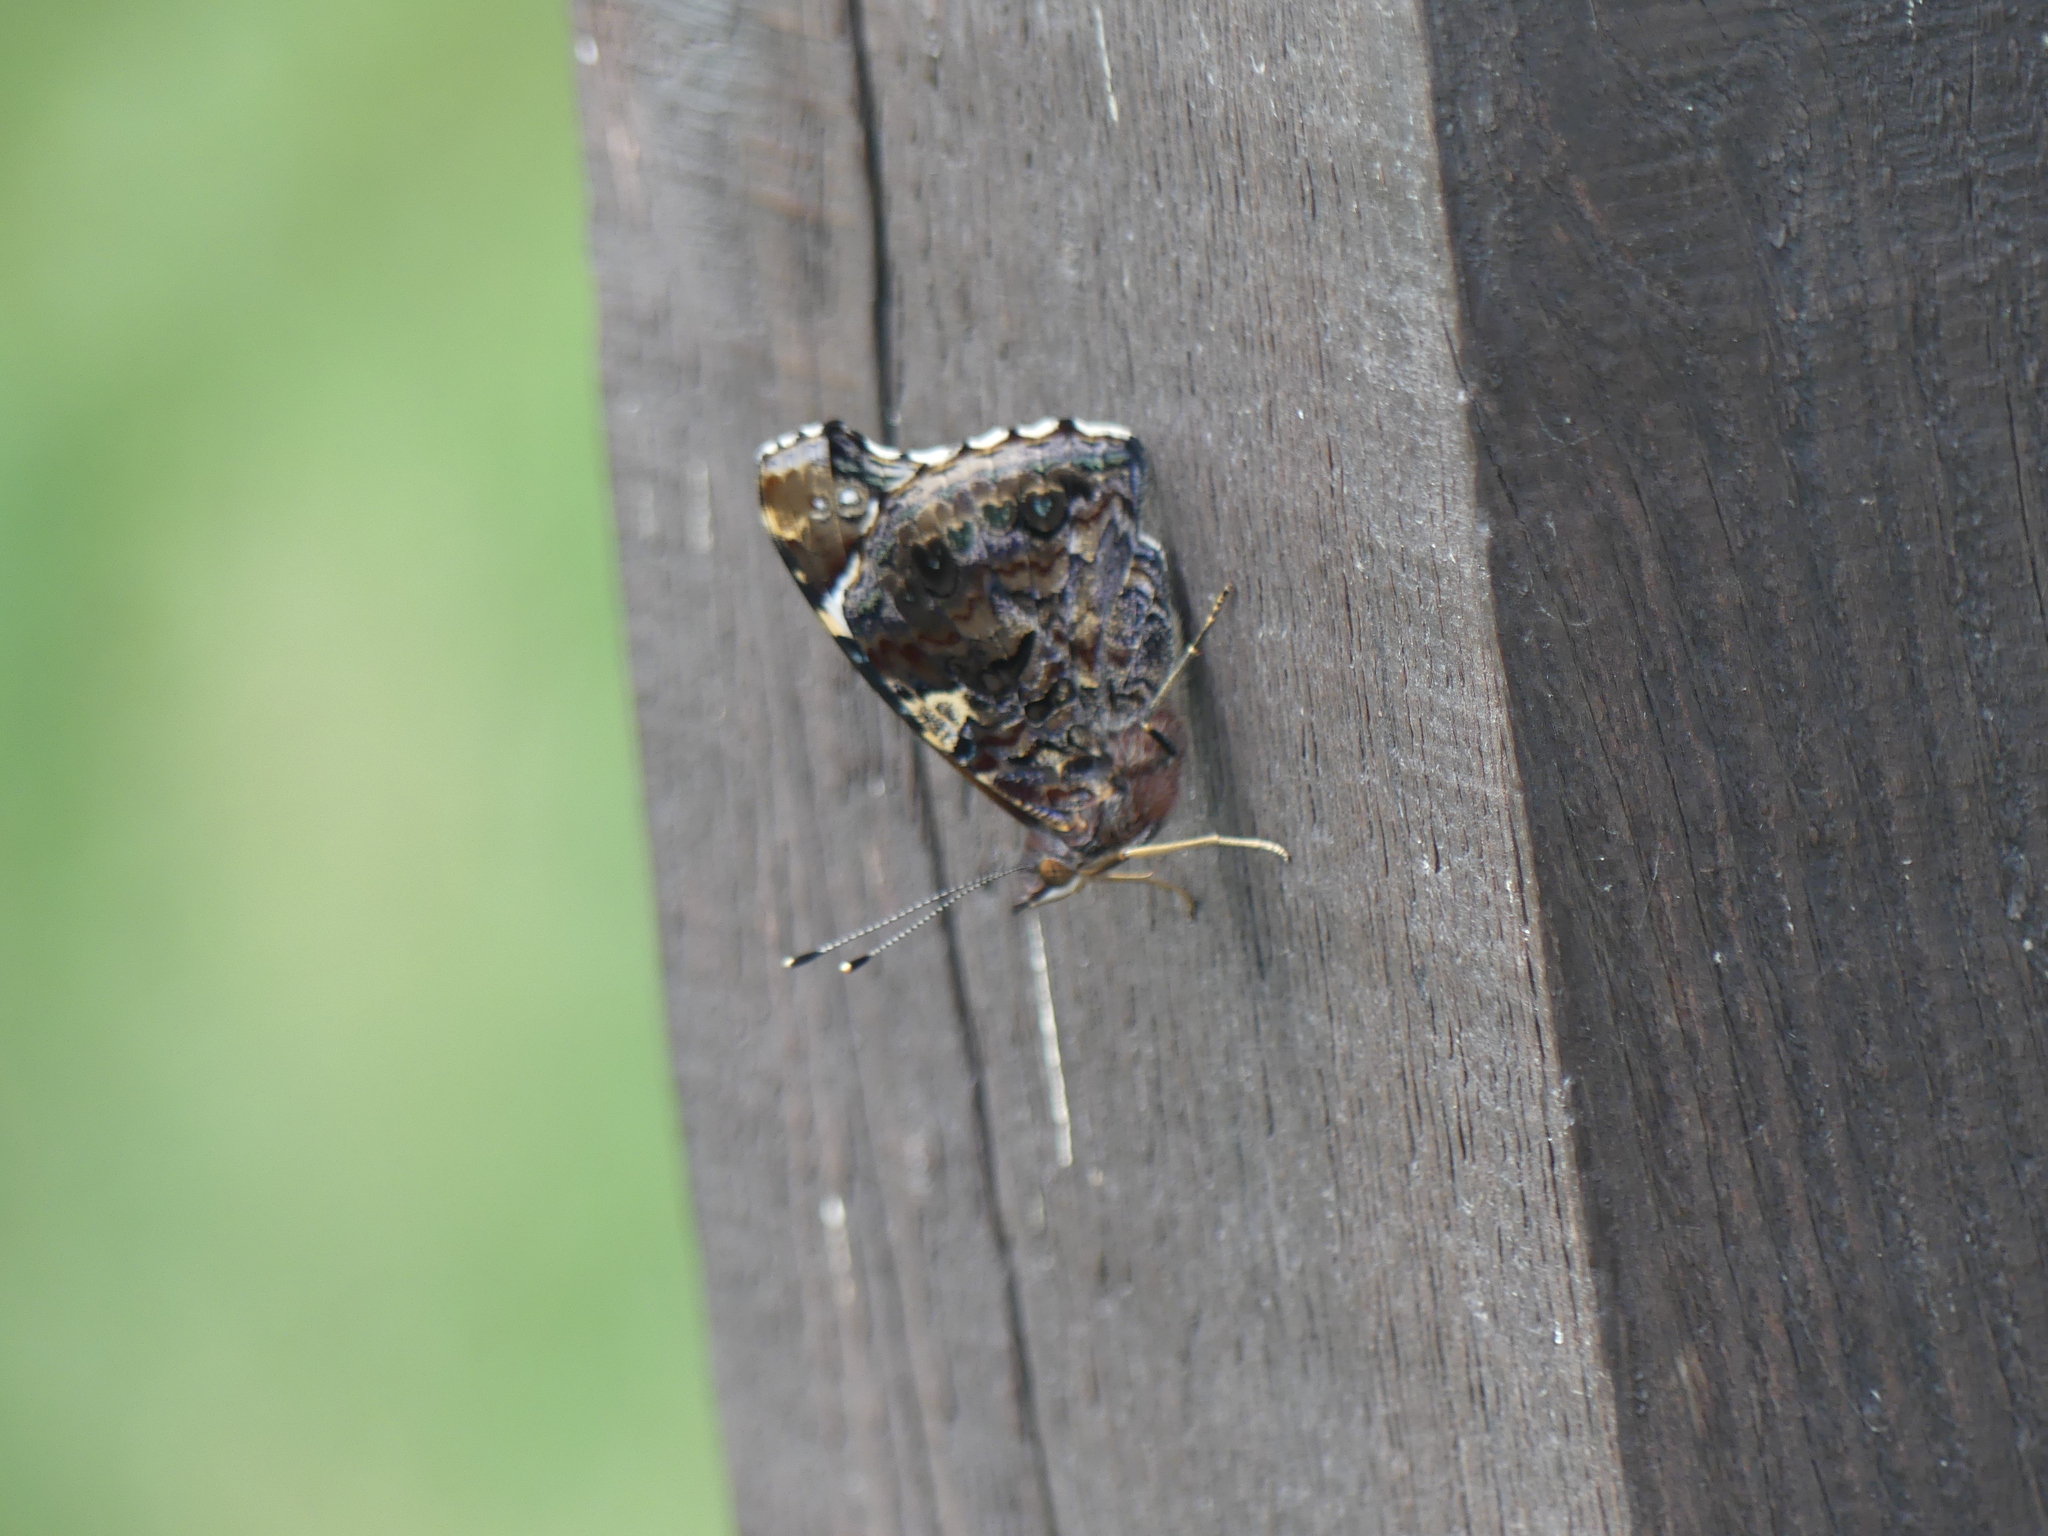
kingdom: Animalia
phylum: Arthropoda
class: Insecta
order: Lepidoptera
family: Nymphalidae
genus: Vanessa
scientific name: Vanessa atalanta
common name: Red admiral
